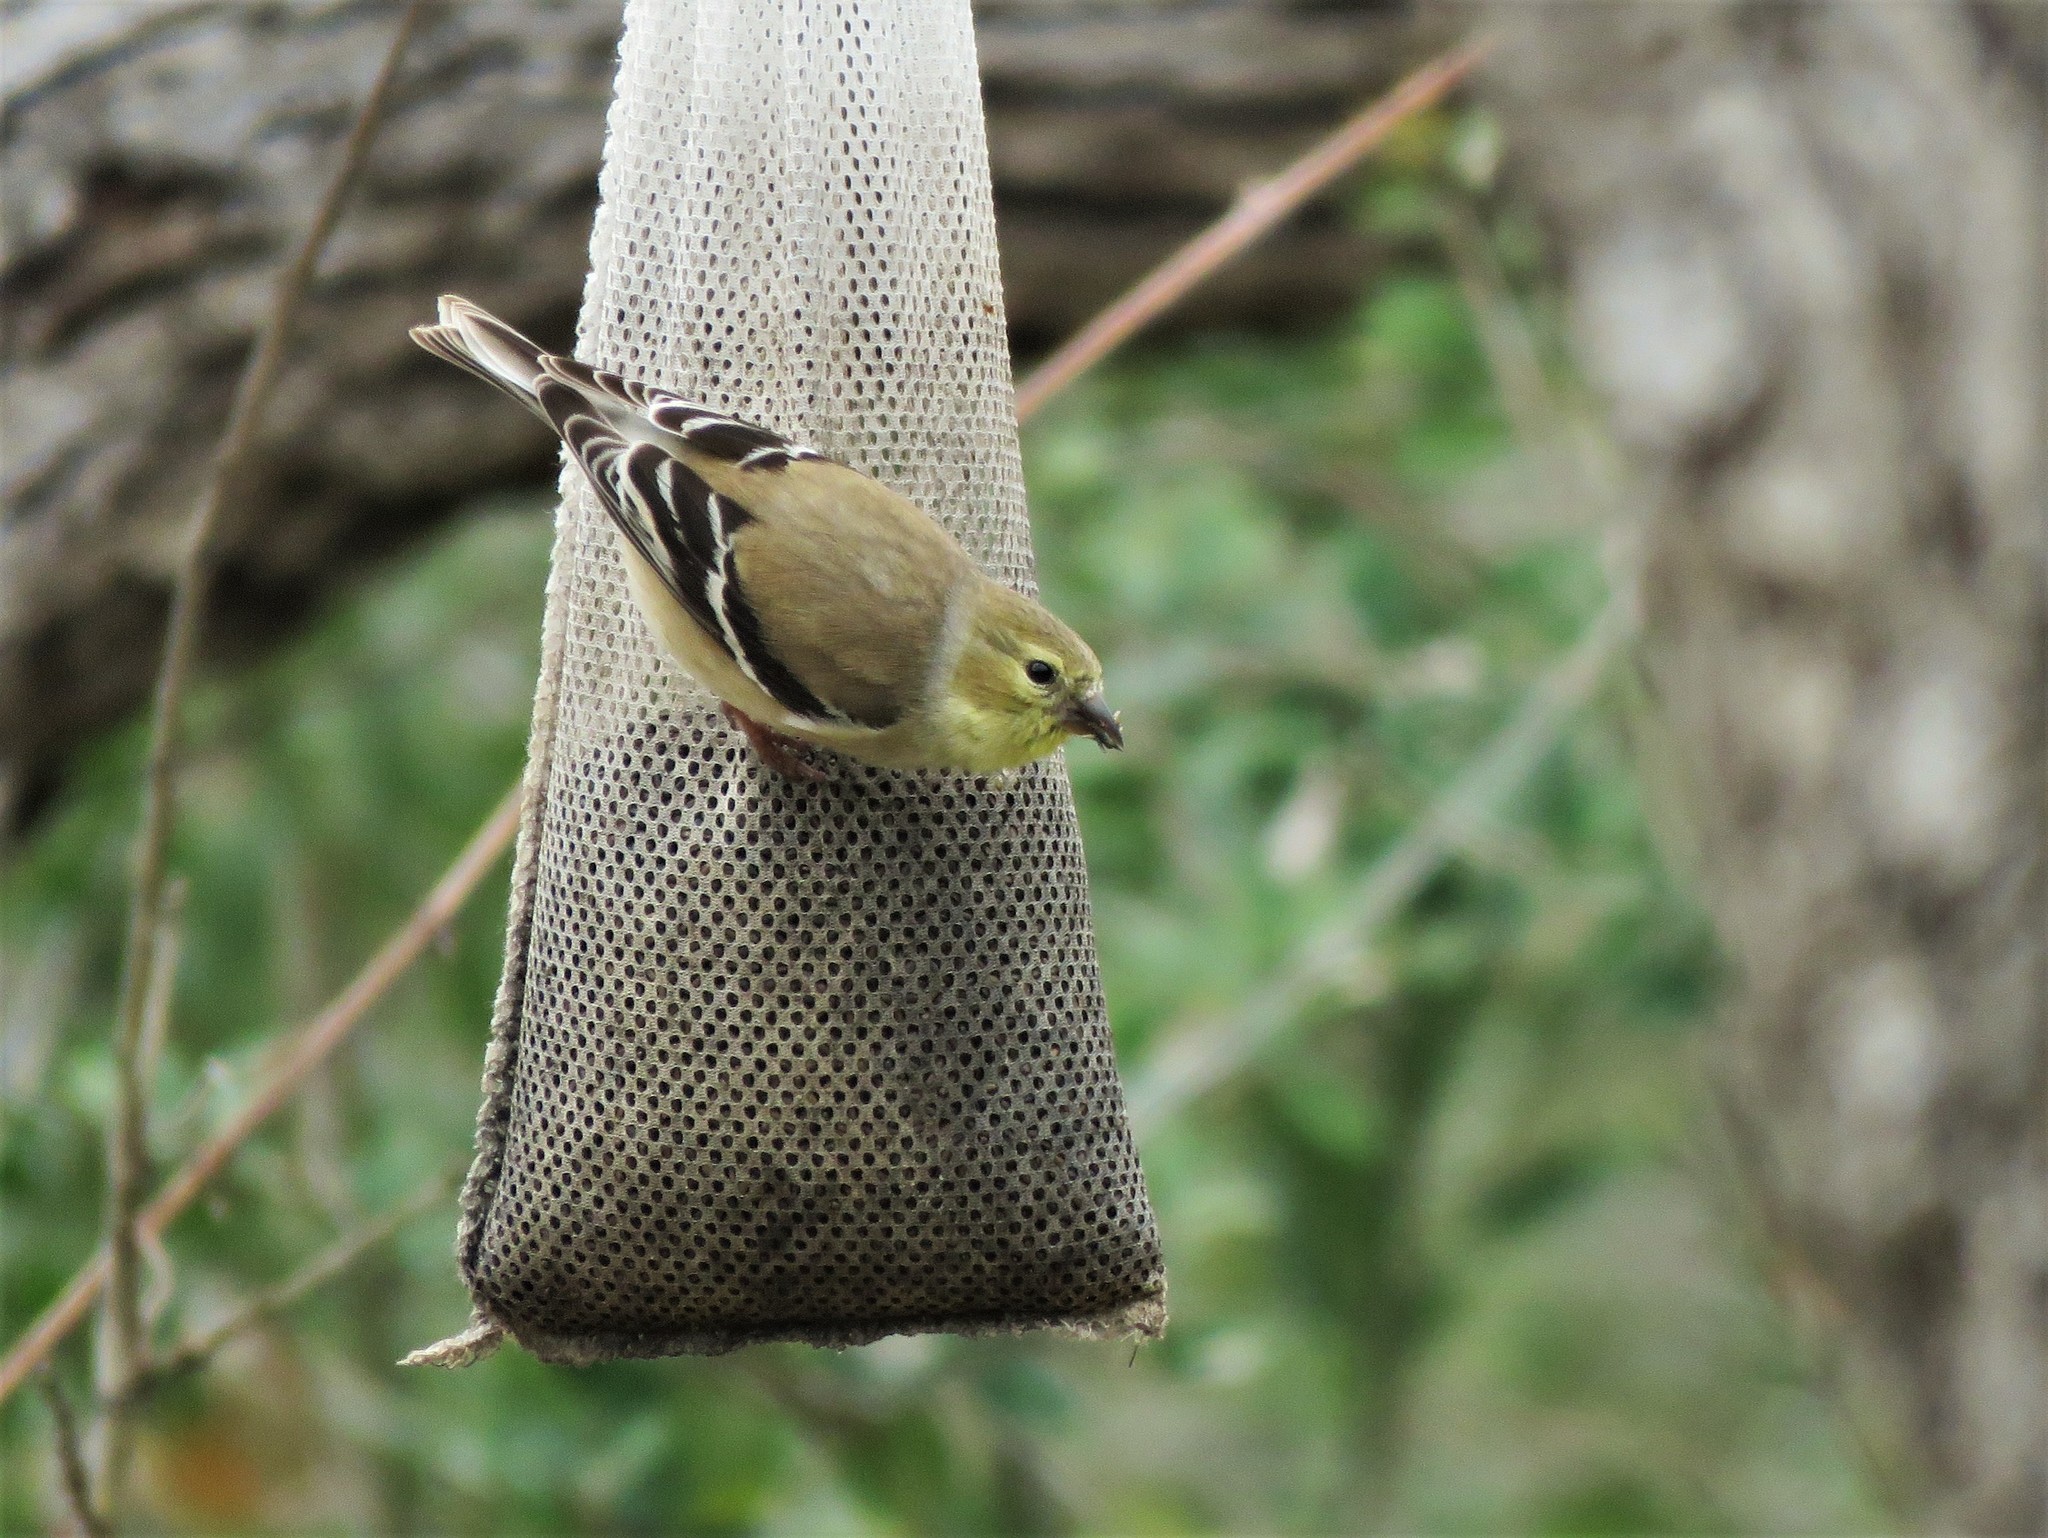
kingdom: Animalia
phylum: Chordata
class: Aves
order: Passeriformes
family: Fringillidae
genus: Spinus
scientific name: Spinus tristis
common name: American goldfinch
